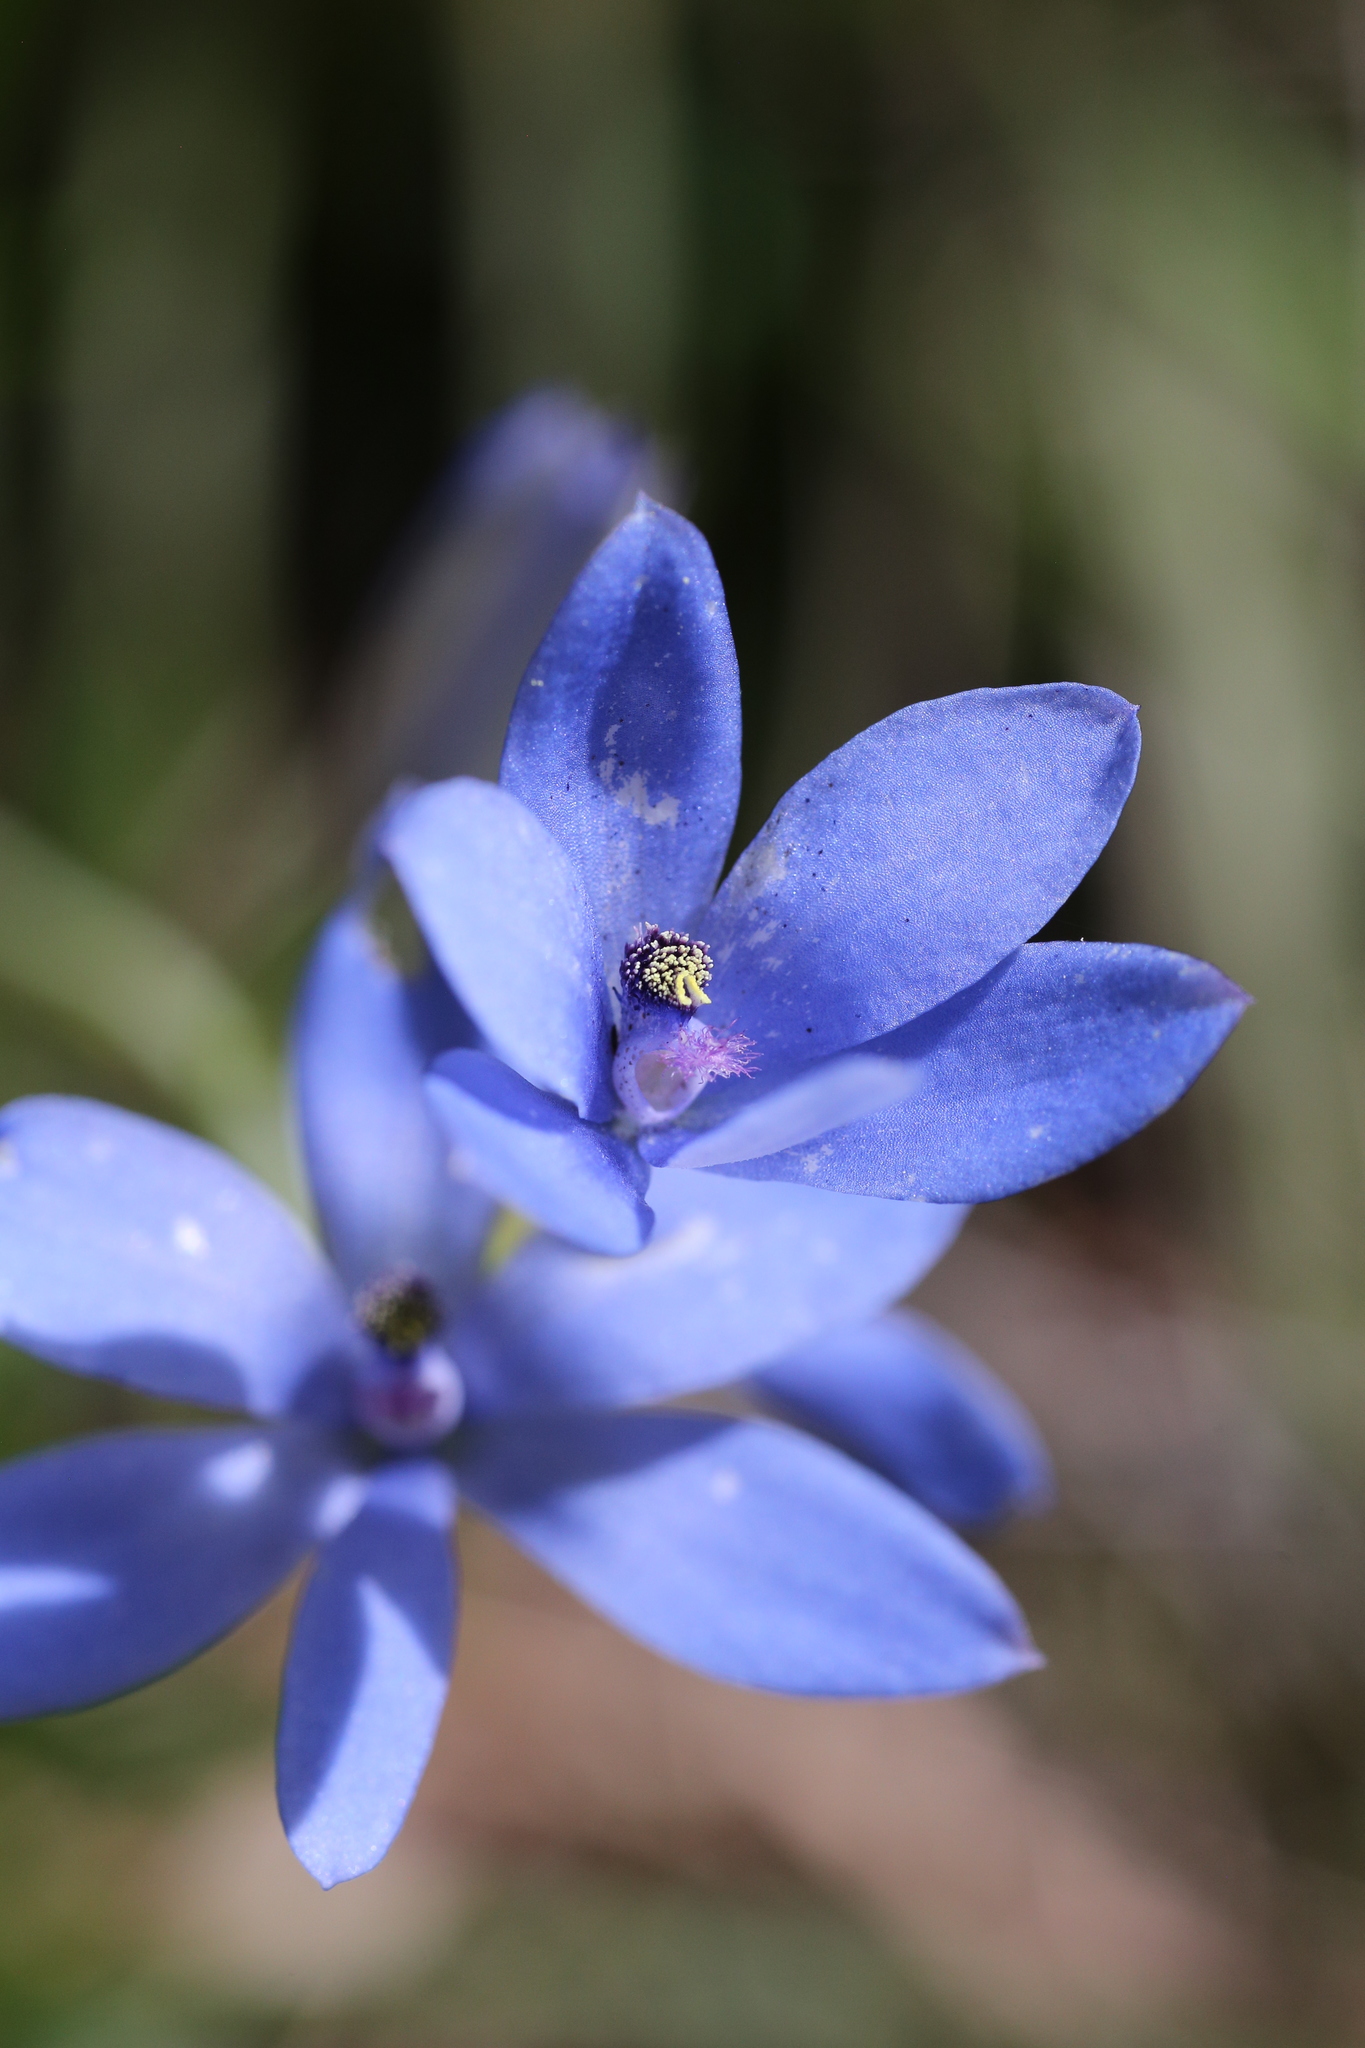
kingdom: Plantae
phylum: Tracheophyta
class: Liliopsida
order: Asparagales
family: Orchidaceae
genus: Thelymitra
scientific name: Thelymitra crinita
